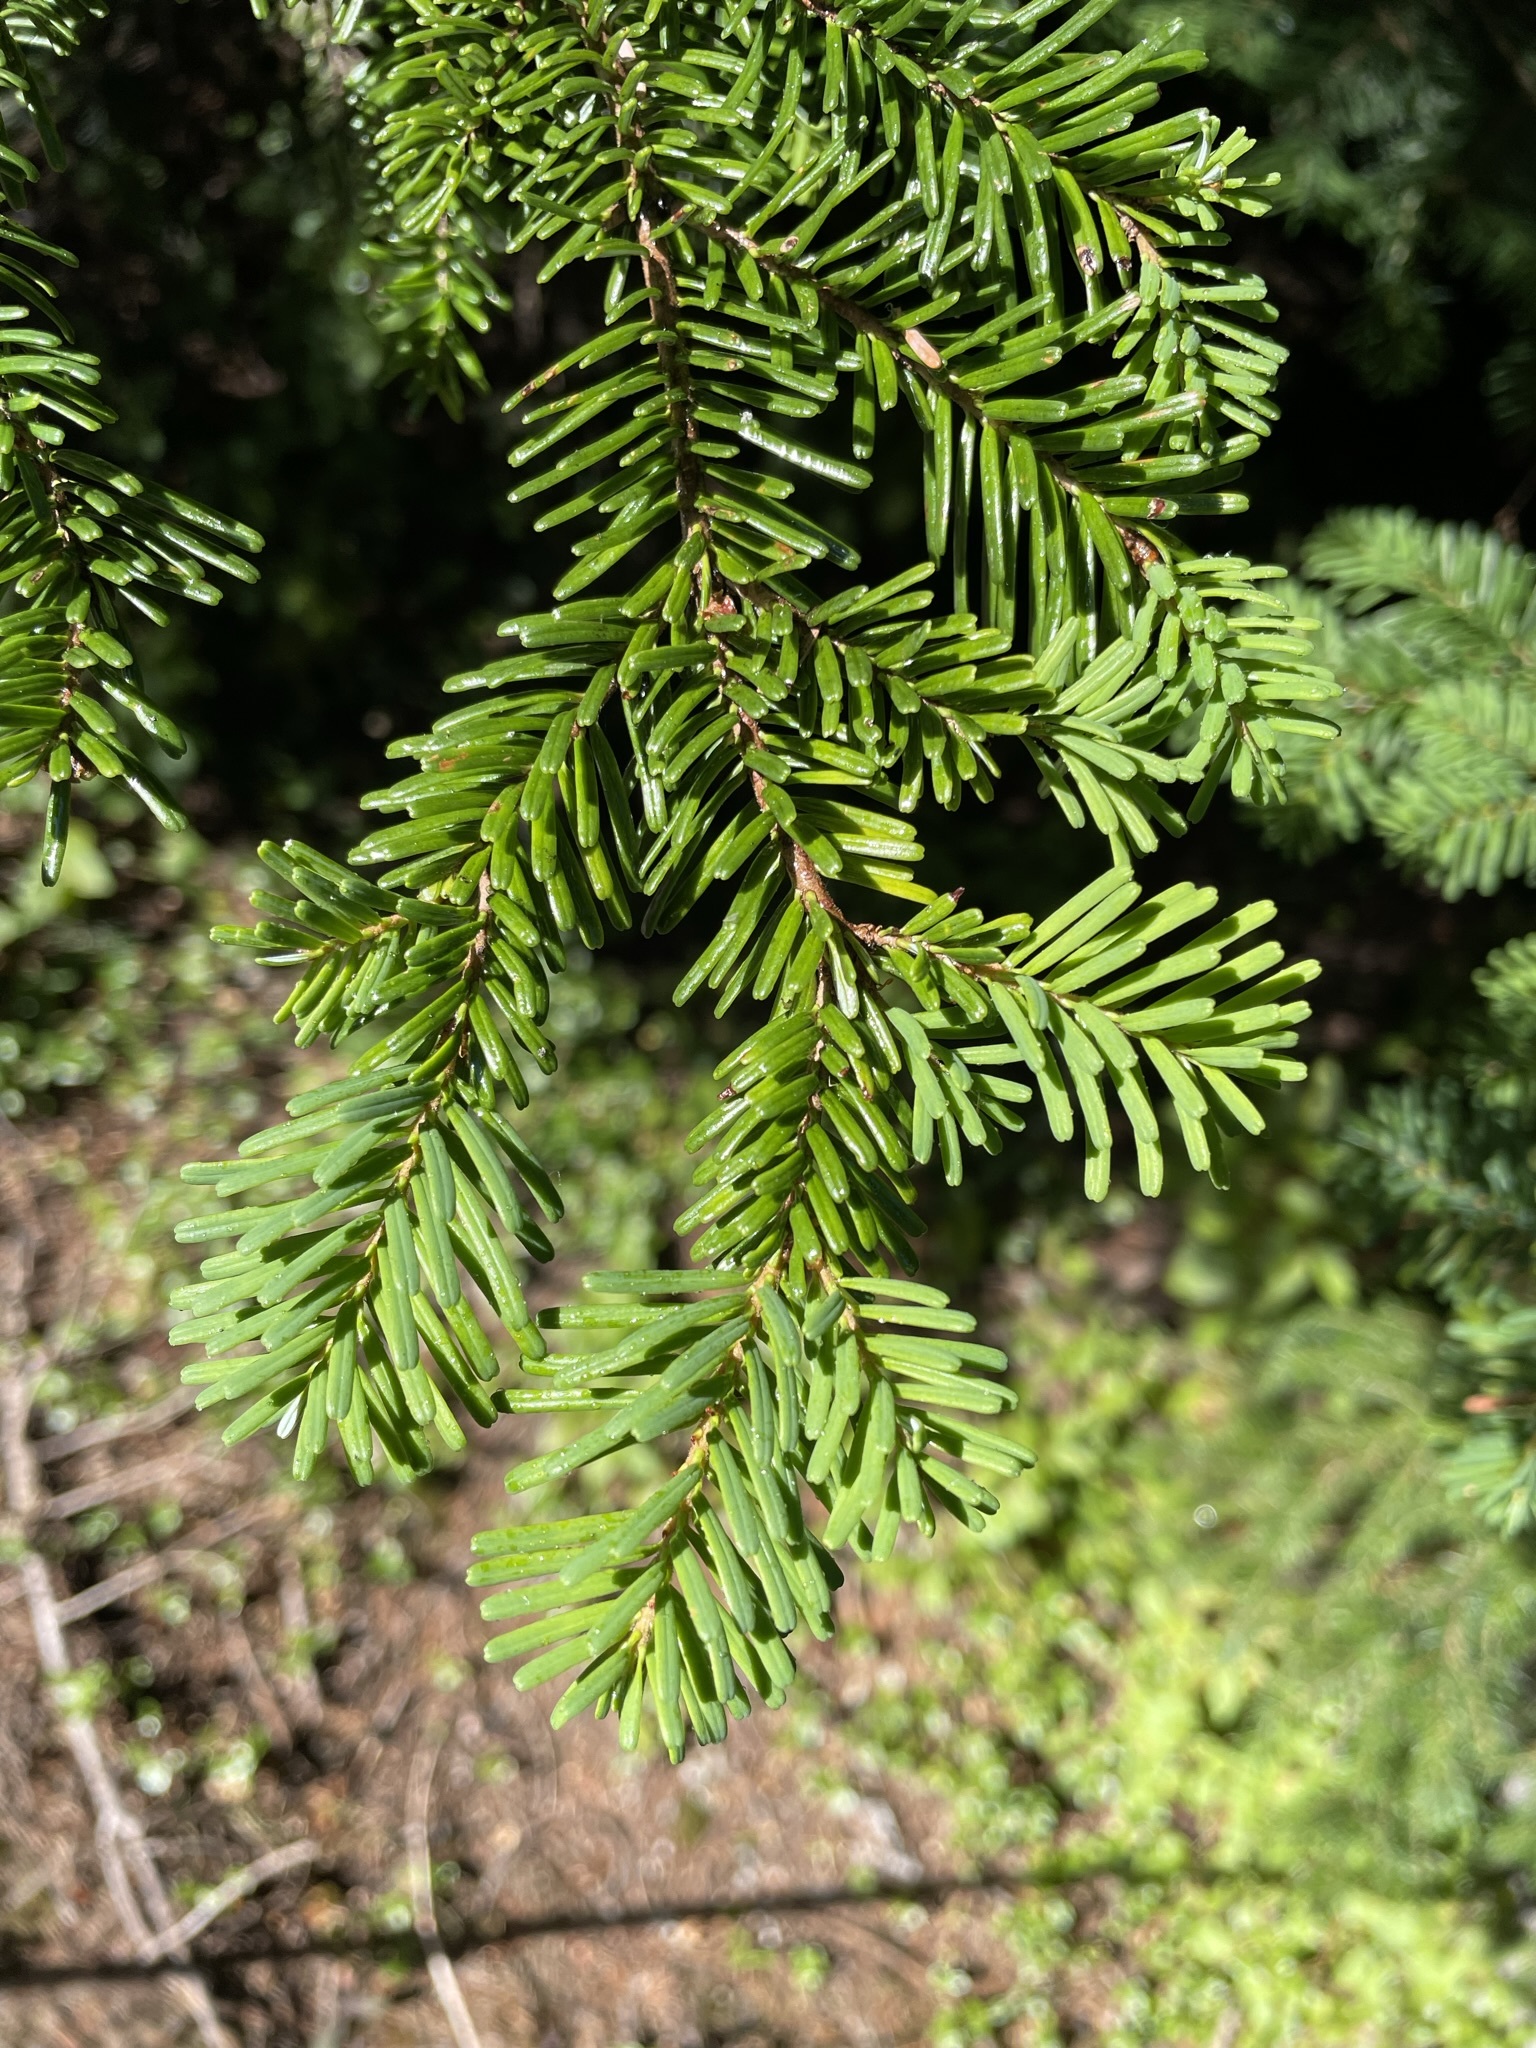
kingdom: Plantae
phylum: Tracheophyta
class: Pinopsida
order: Pinales
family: Pinaceae
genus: Abies
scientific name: Abies amabilis
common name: Pacific silver fir
